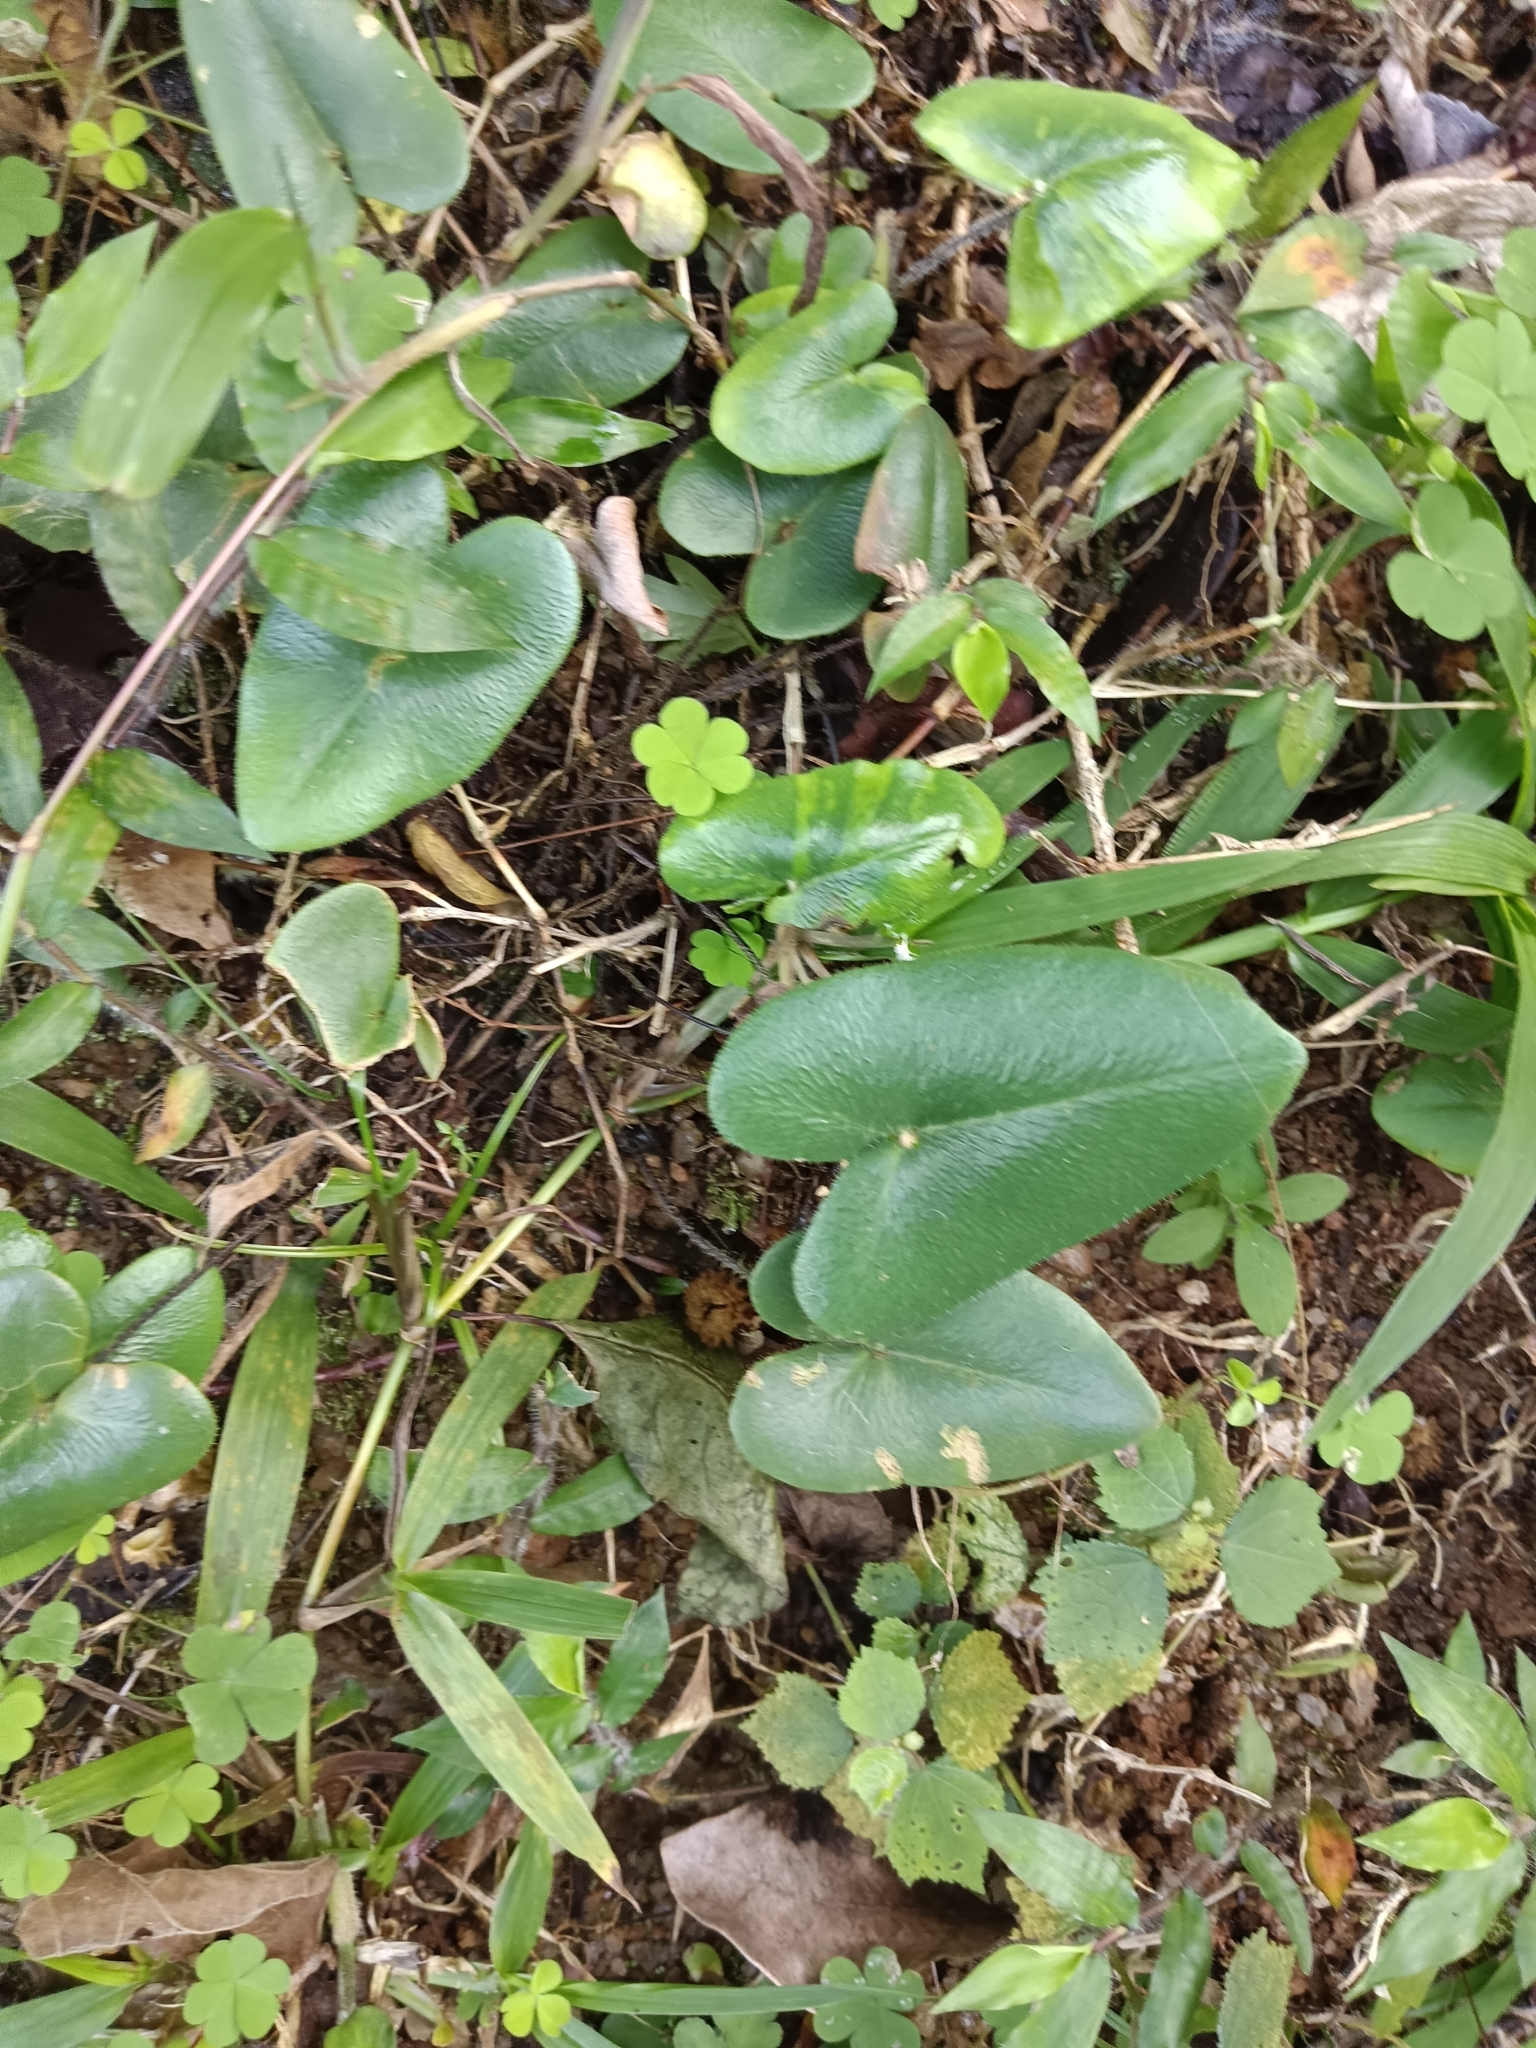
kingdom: Plantae
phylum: Tracheophyta
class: Polypodiopsida
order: Polypodiales
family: Pteridaceae
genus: Mickelopteris
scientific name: Mickelopteris cordata
